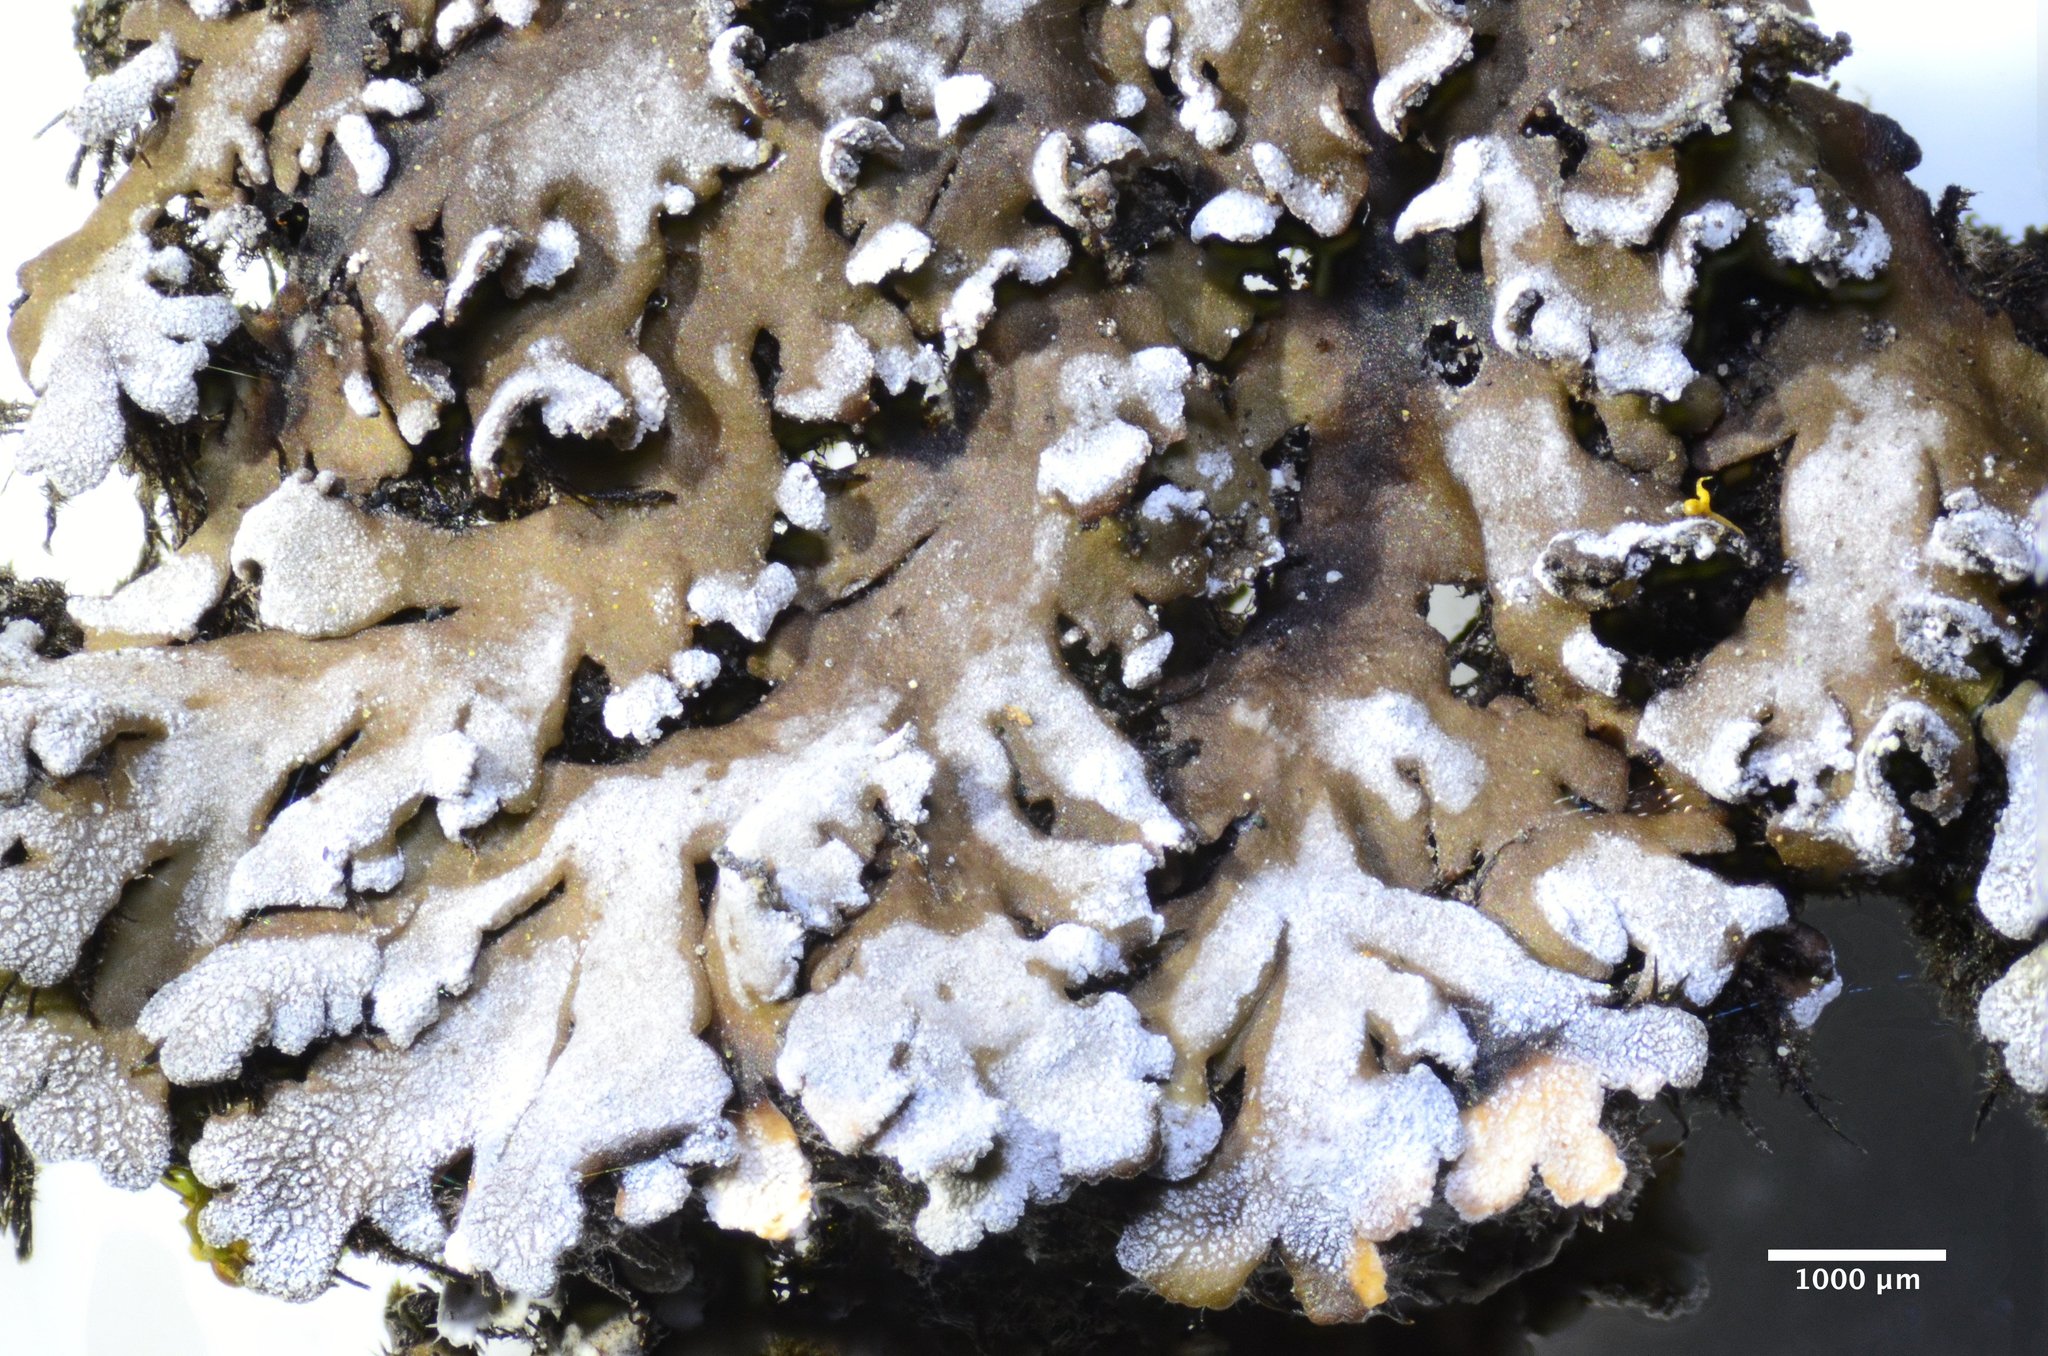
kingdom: Fungi
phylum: Ascomycota
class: Lecanoromycetes
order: Caliciales
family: Physciaceae
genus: Physconia
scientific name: Physconia isidiigera
